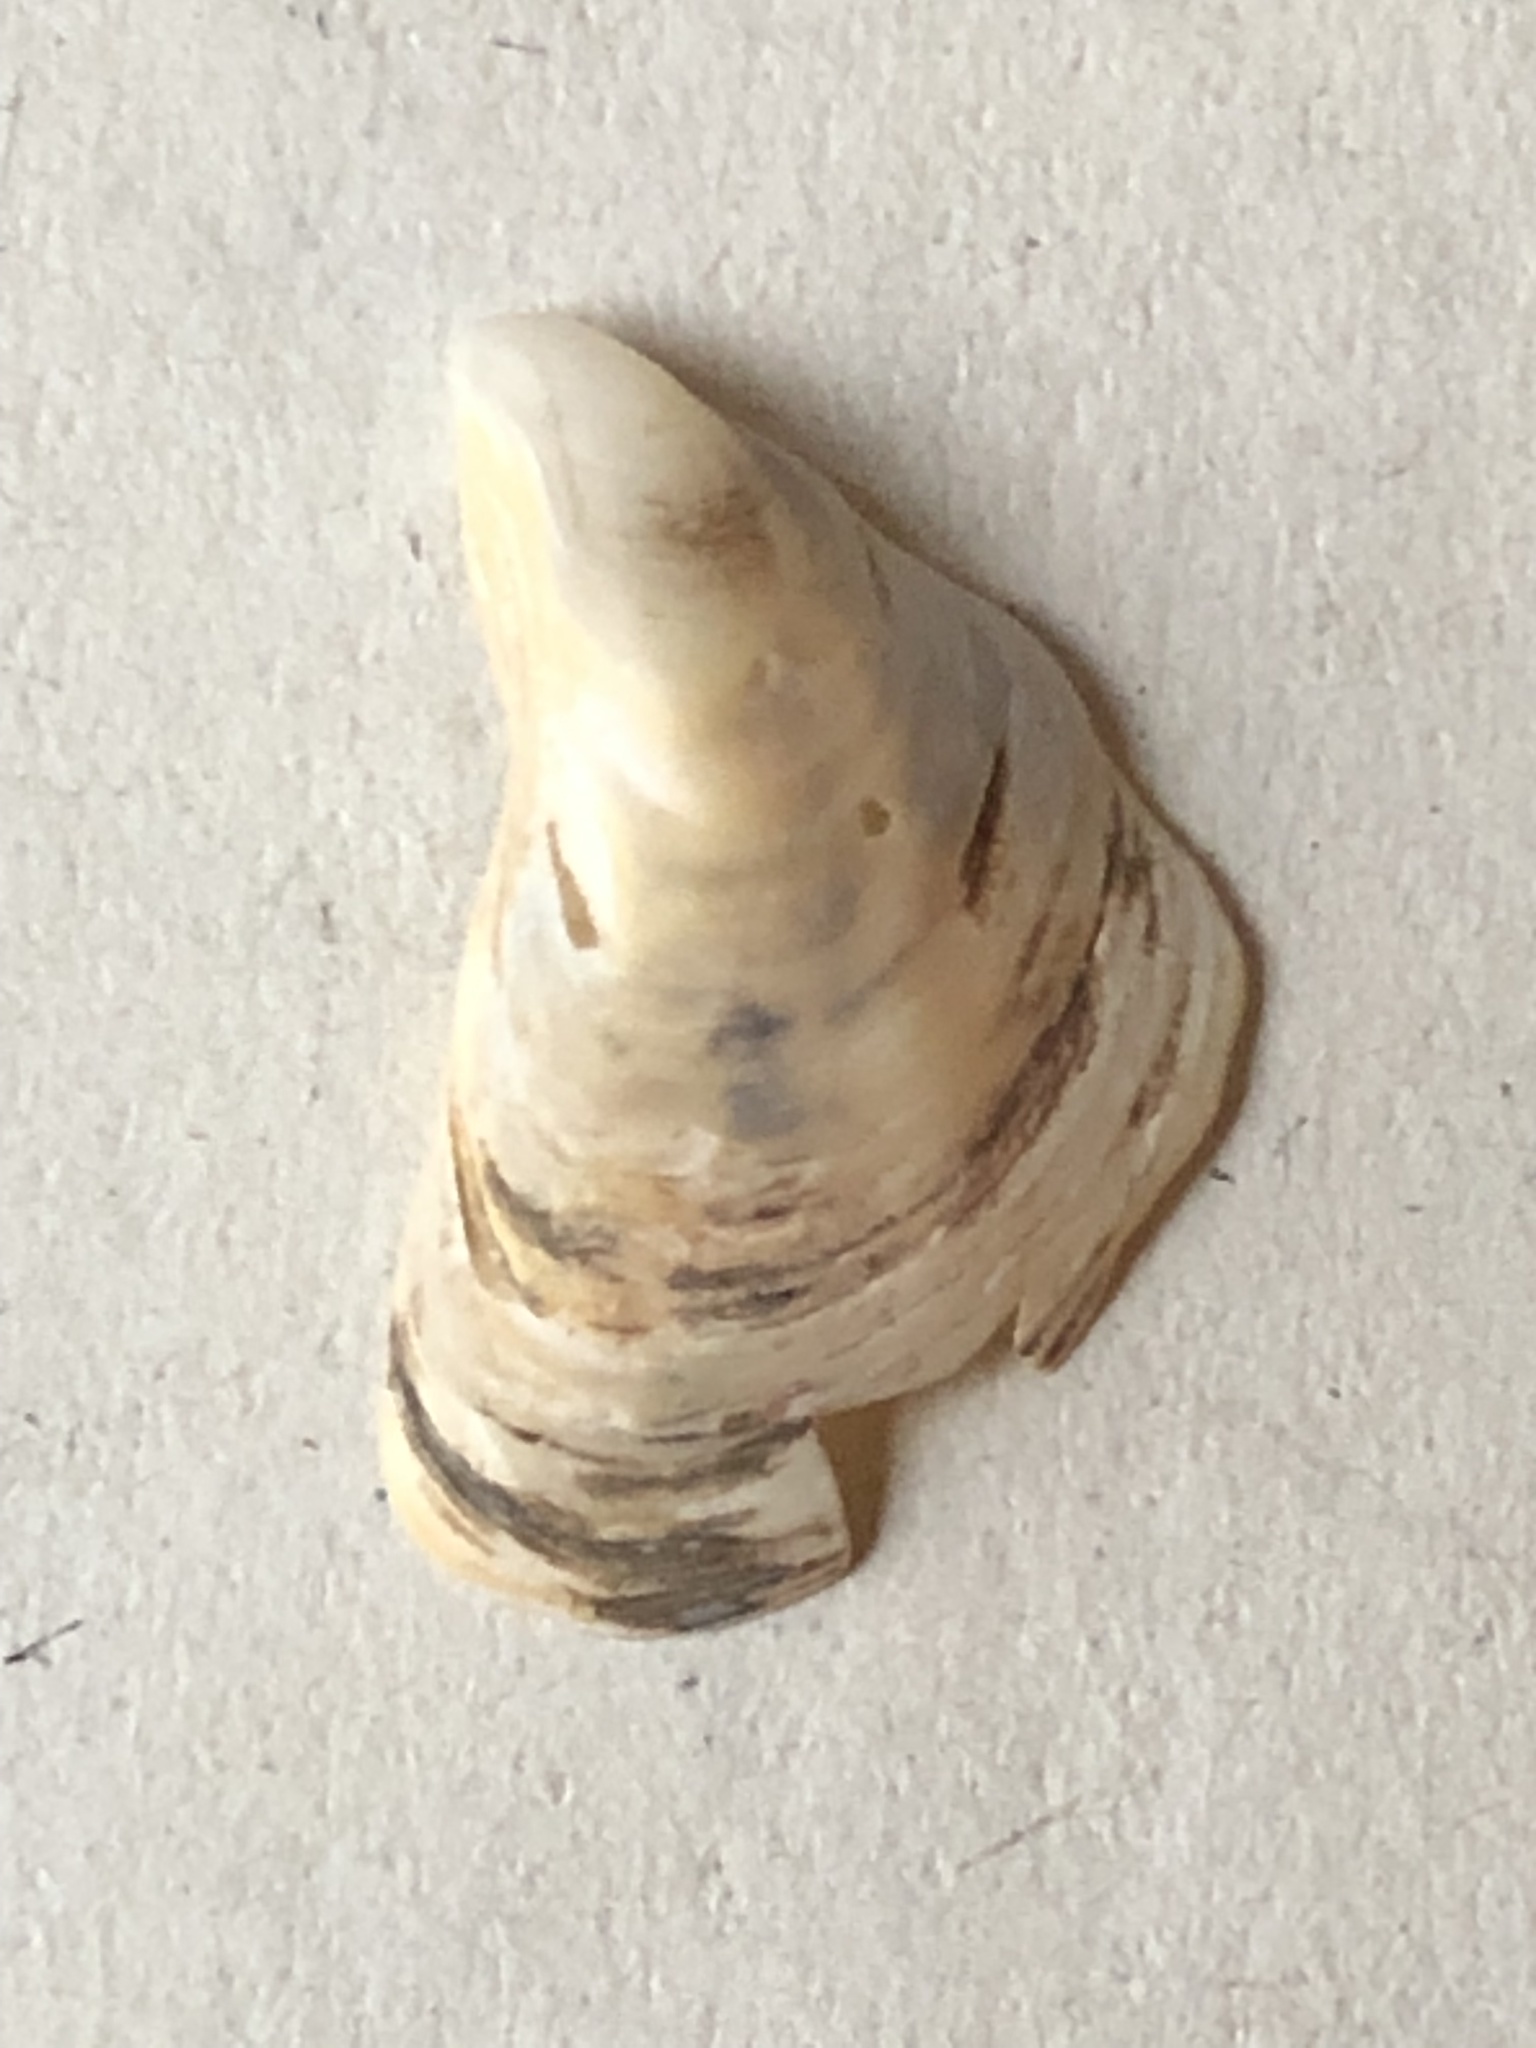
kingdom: Animalia
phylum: Mollusca
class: Bivalvia
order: Myida
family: Dreissenidae
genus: Dreissena
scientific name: Dreissena bugensis
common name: Quagga mussel
